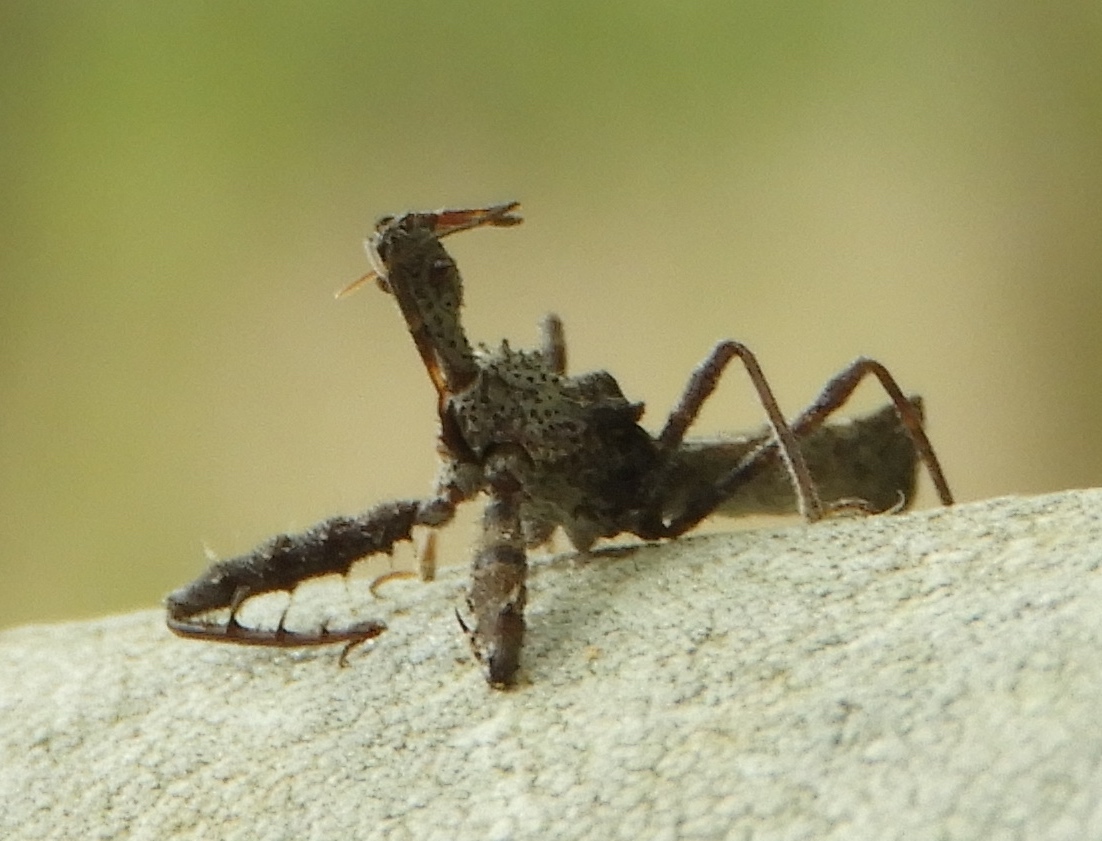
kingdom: Animalia
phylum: Arthropoda
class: Insecta
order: Hemiptera
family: Reduviidae
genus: Sinea
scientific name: Sinea spinipes
